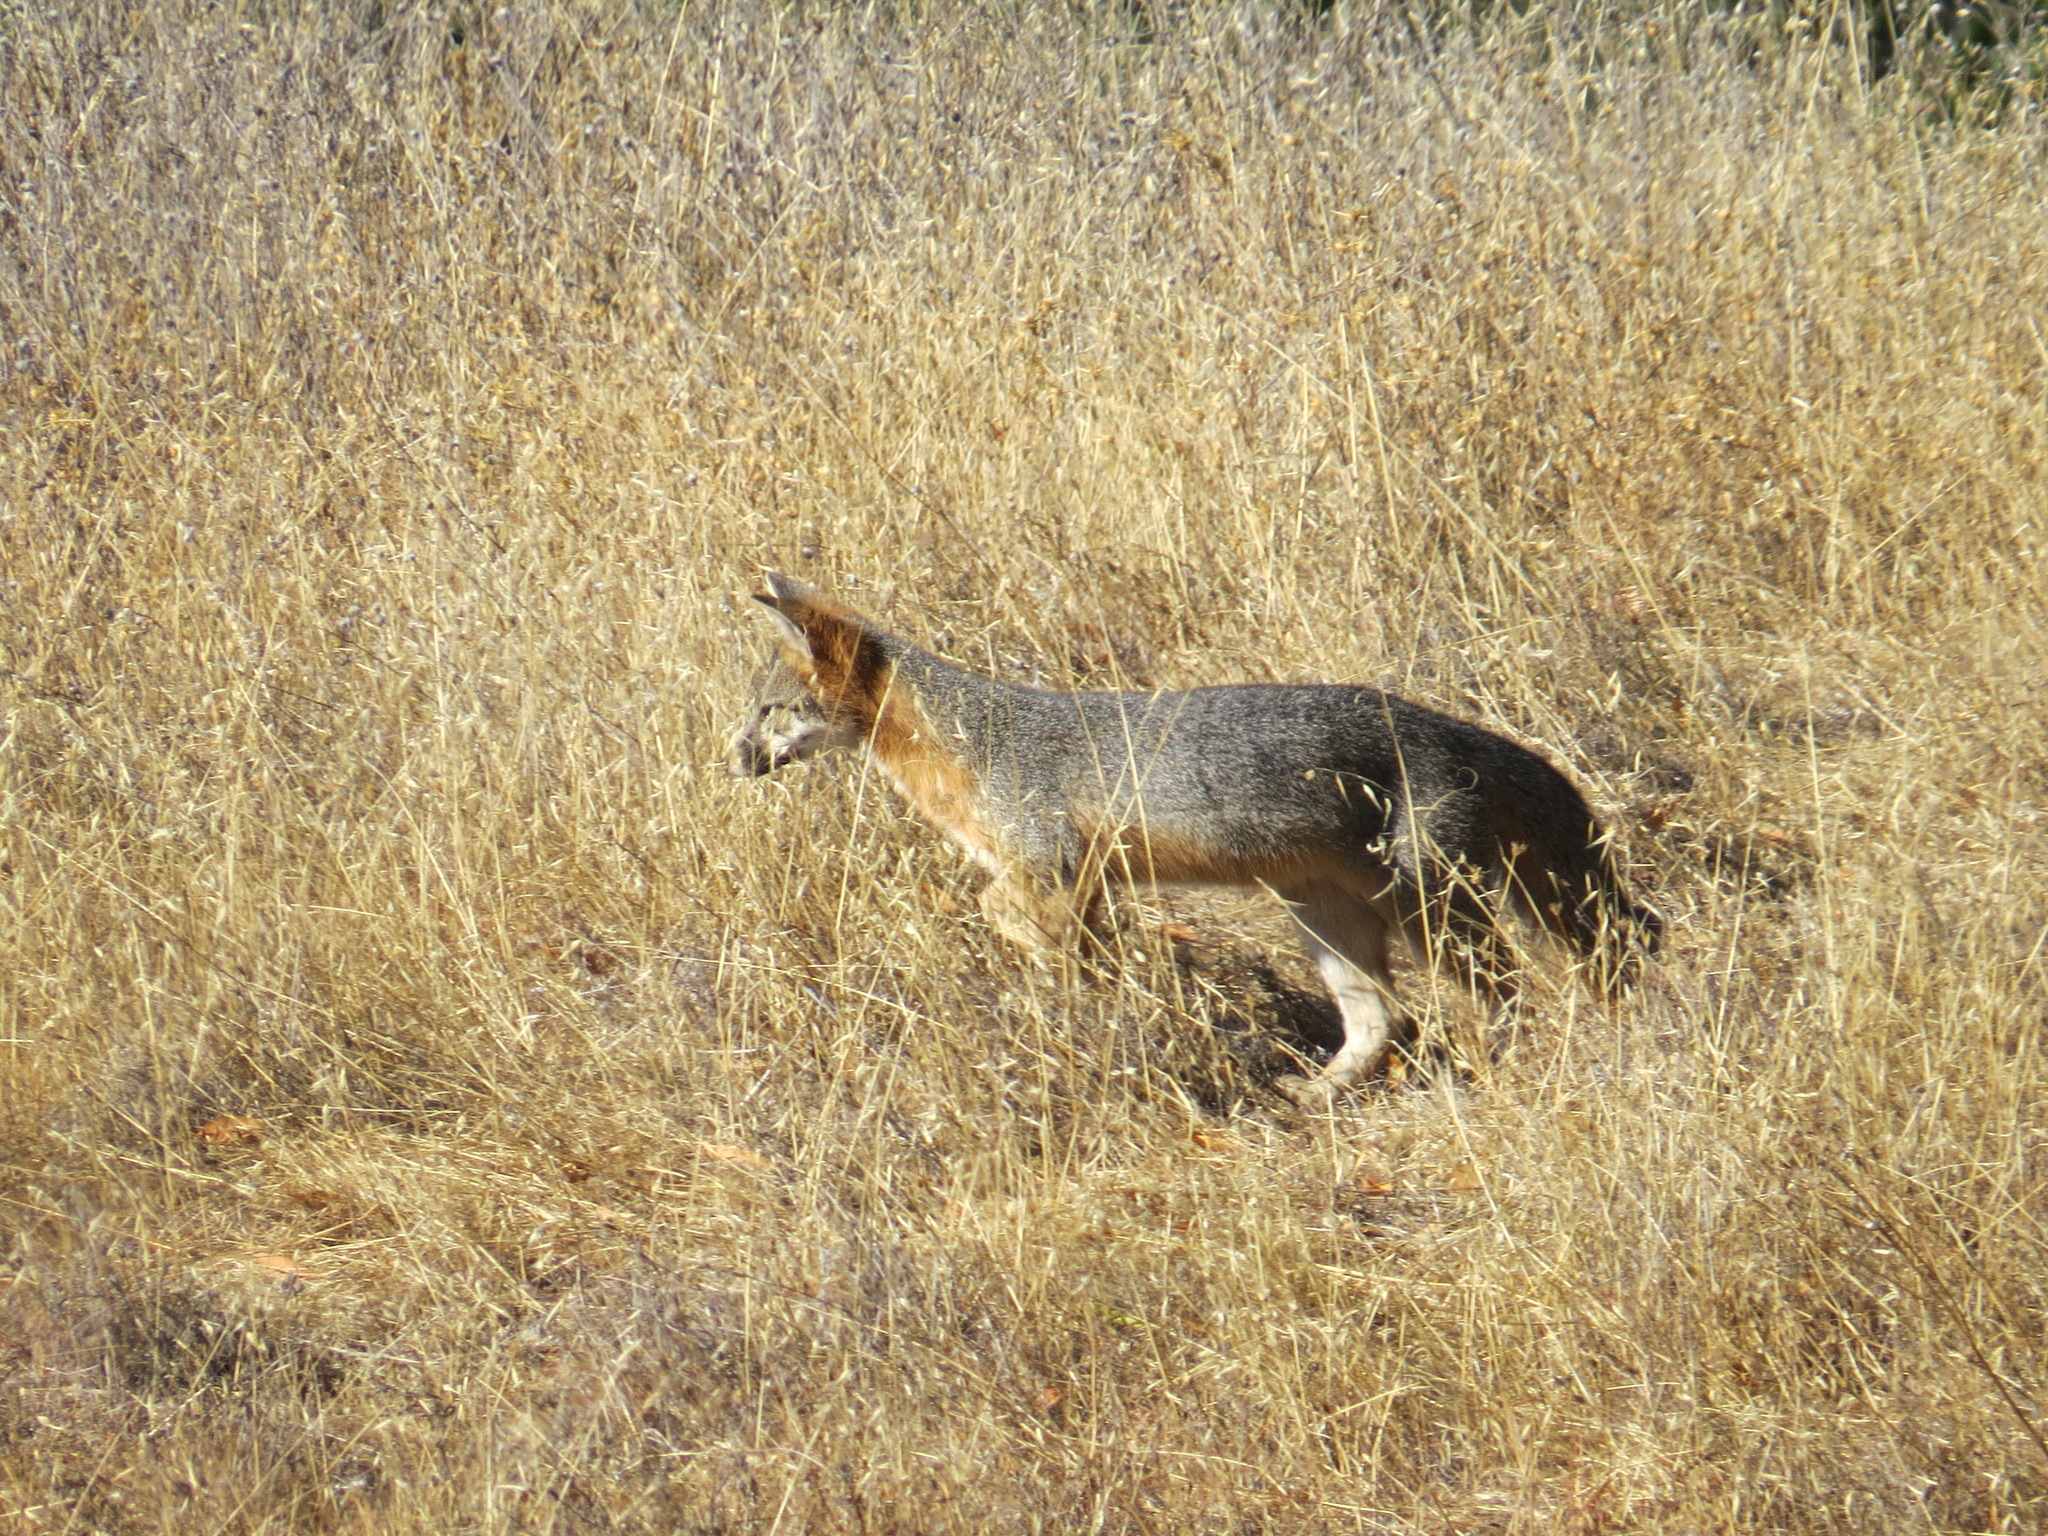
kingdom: Animalia
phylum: Chordata
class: Mammalia
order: Carnivora
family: Canidae
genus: Urocyon
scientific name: Urocyon cinereoargenteus
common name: Gray fox
